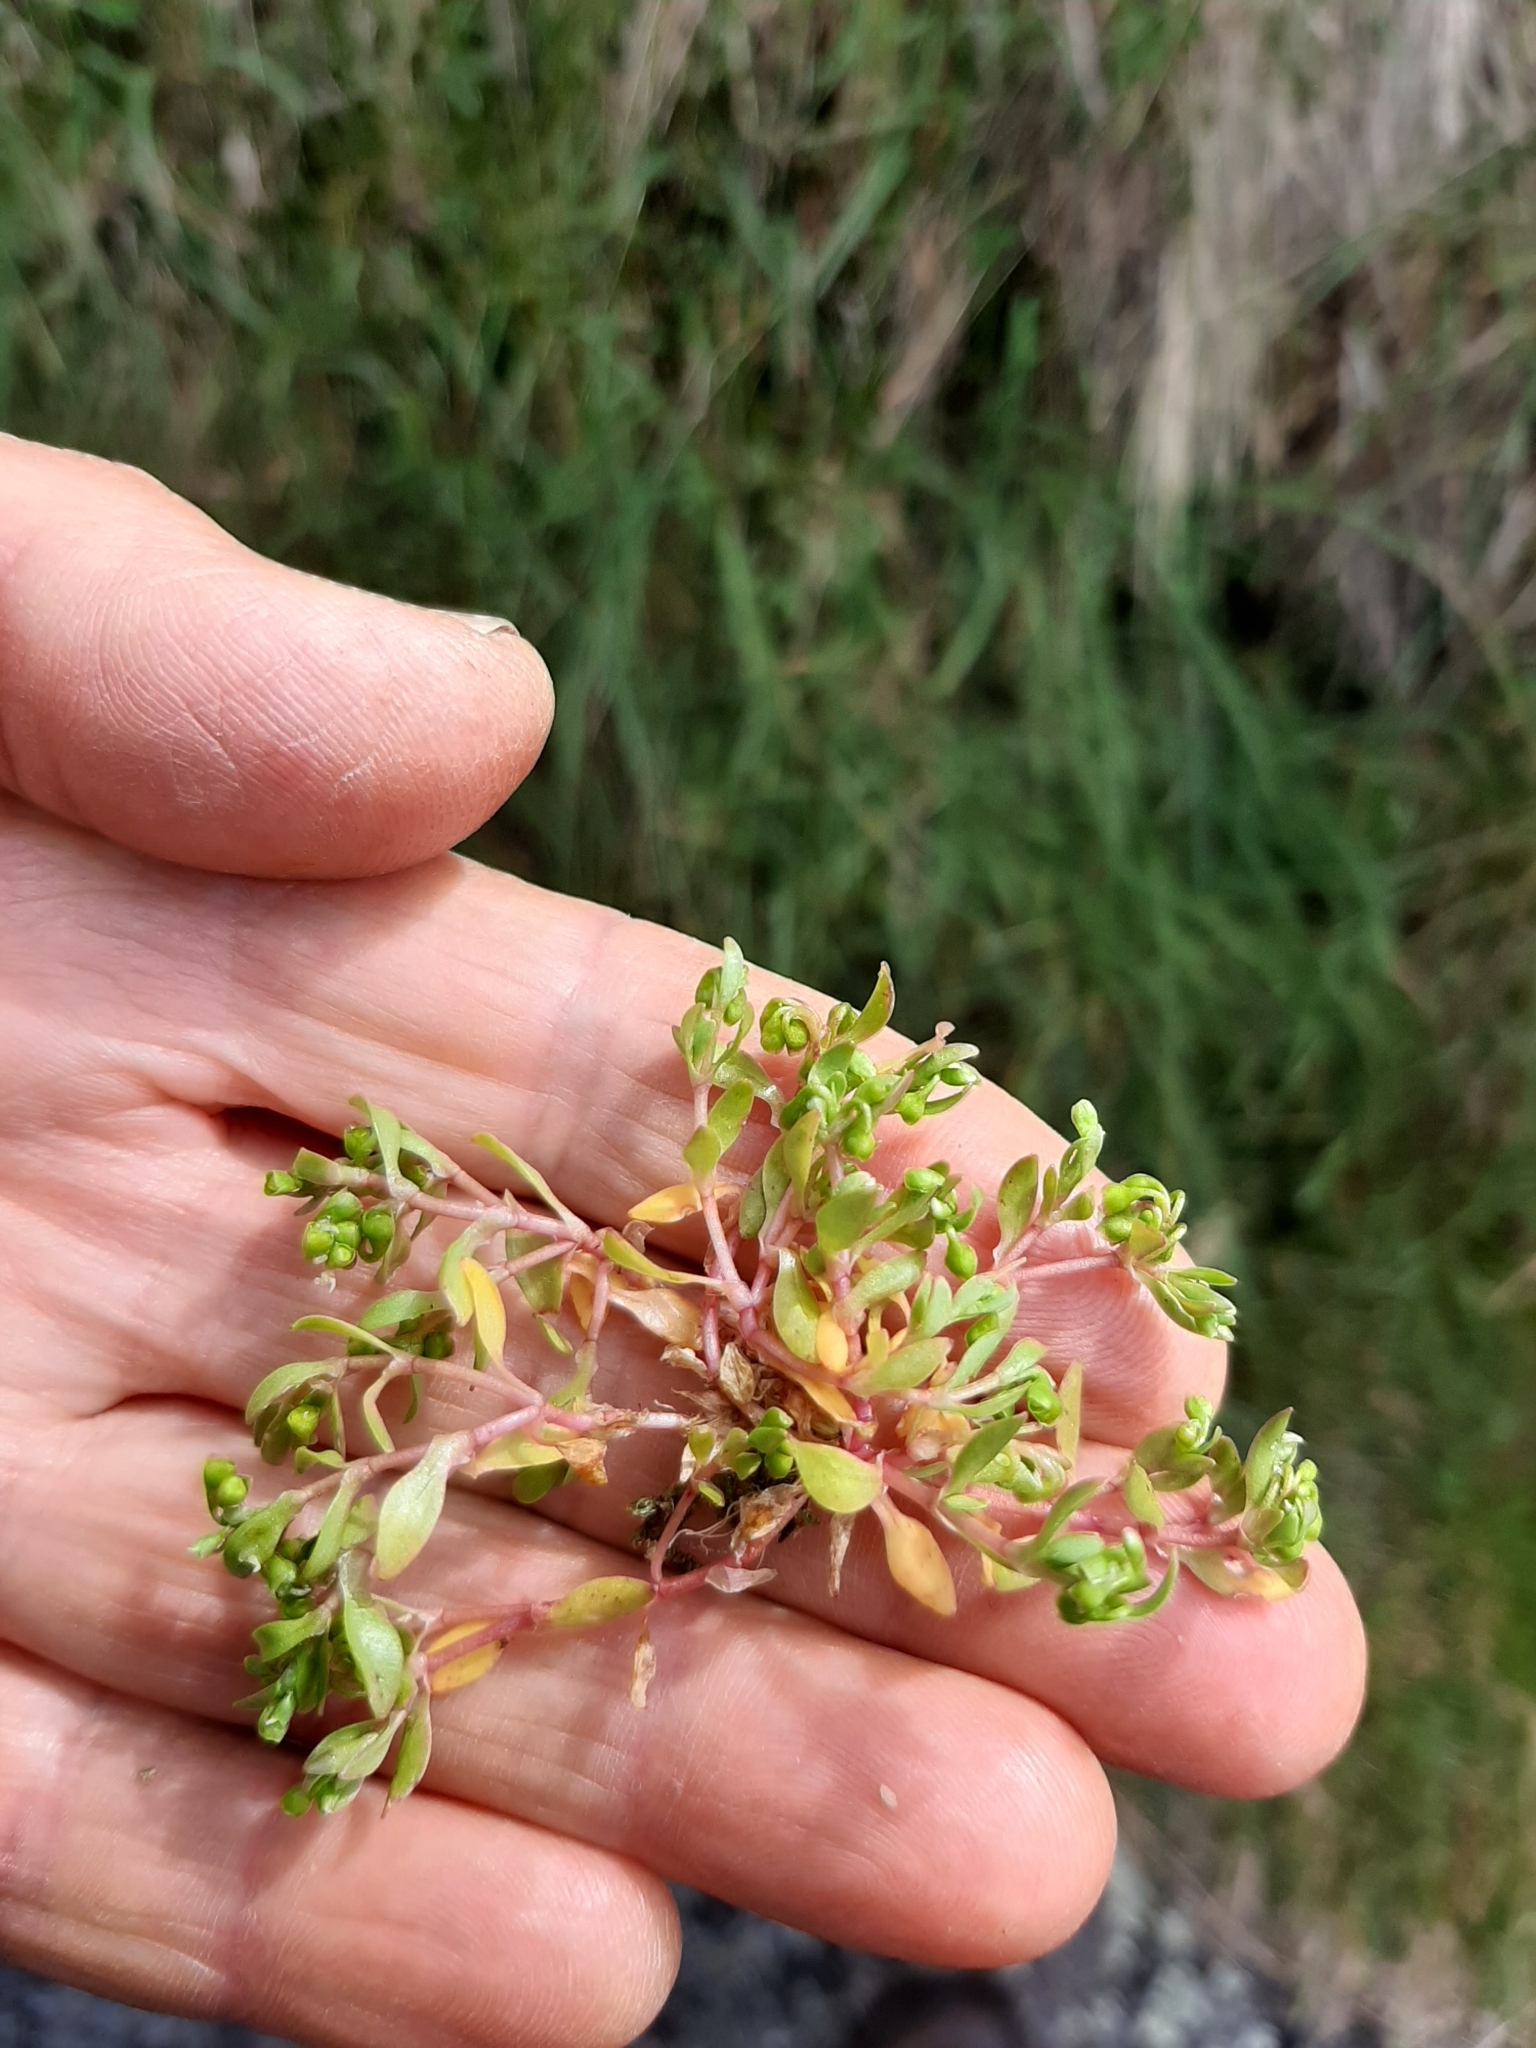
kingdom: Plantae
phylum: Tracheophyta
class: Magnoliopsida
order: Caryophyllales
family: Montiaceae
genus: Montia
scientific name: Montia
